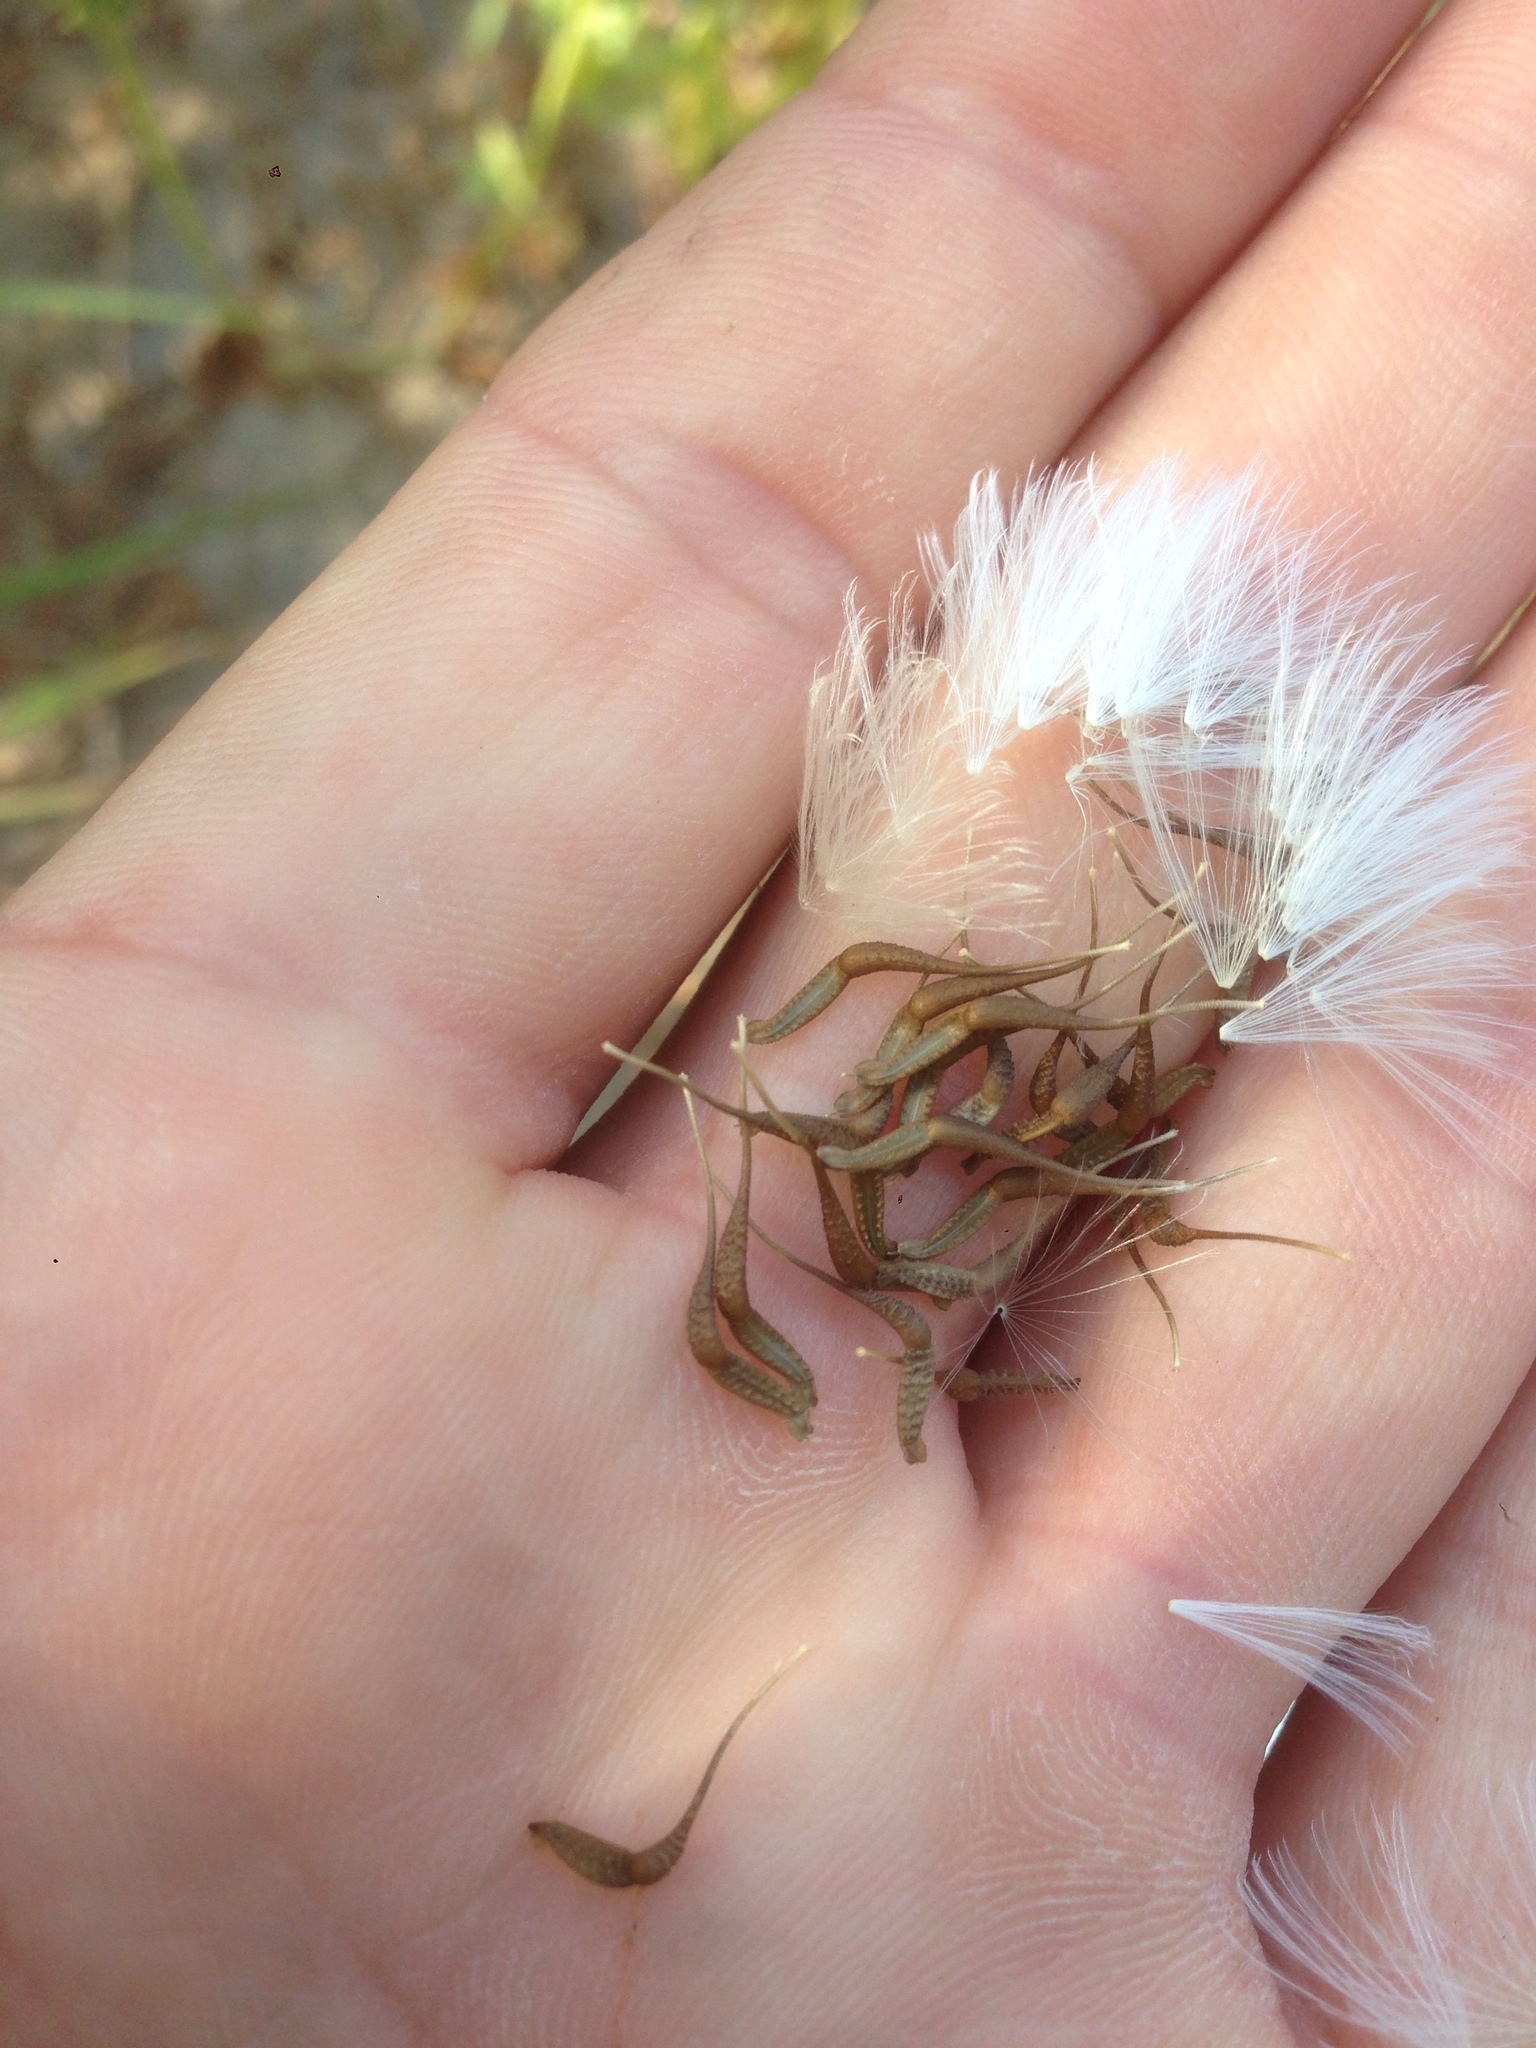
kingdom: Plantae
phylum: Tracheophyta
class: Magnoliopsida
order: Asterales
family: Asteraceae
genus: Urospermum
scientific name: Urospermum picroides
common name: False hawkbit
